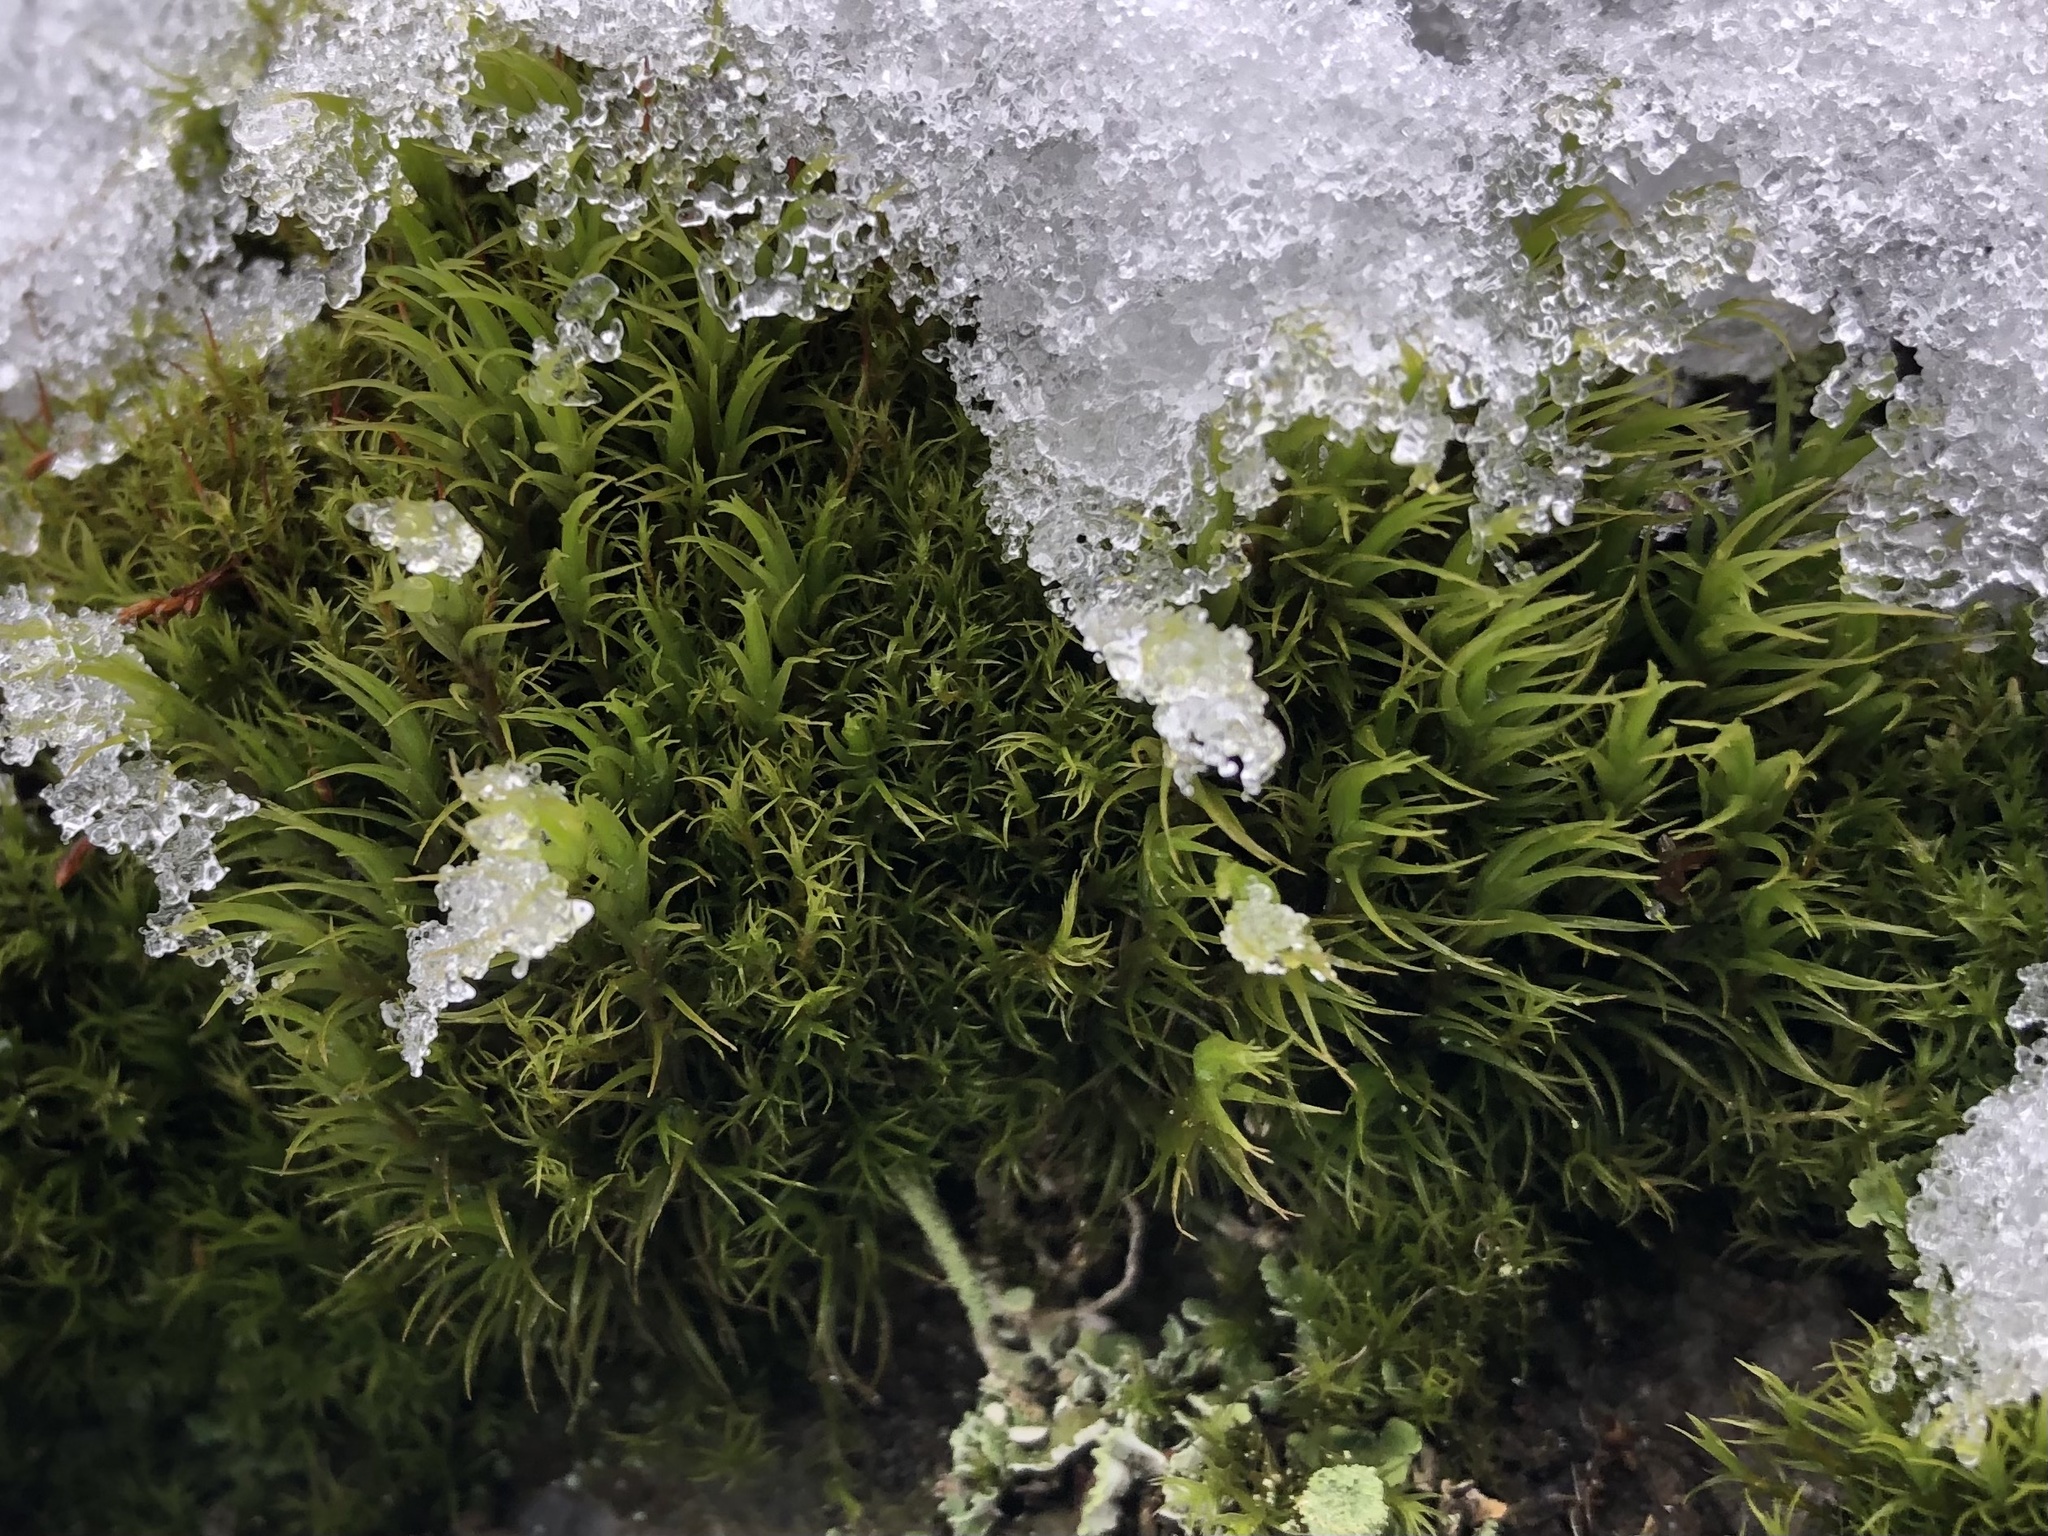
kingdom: Plantae
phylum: Bryophyta
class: Bryopsida
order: Dicranales
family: Dicranaceae
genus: Dicranum
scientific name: Dicranum scoparium
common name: Broom fork-moss
